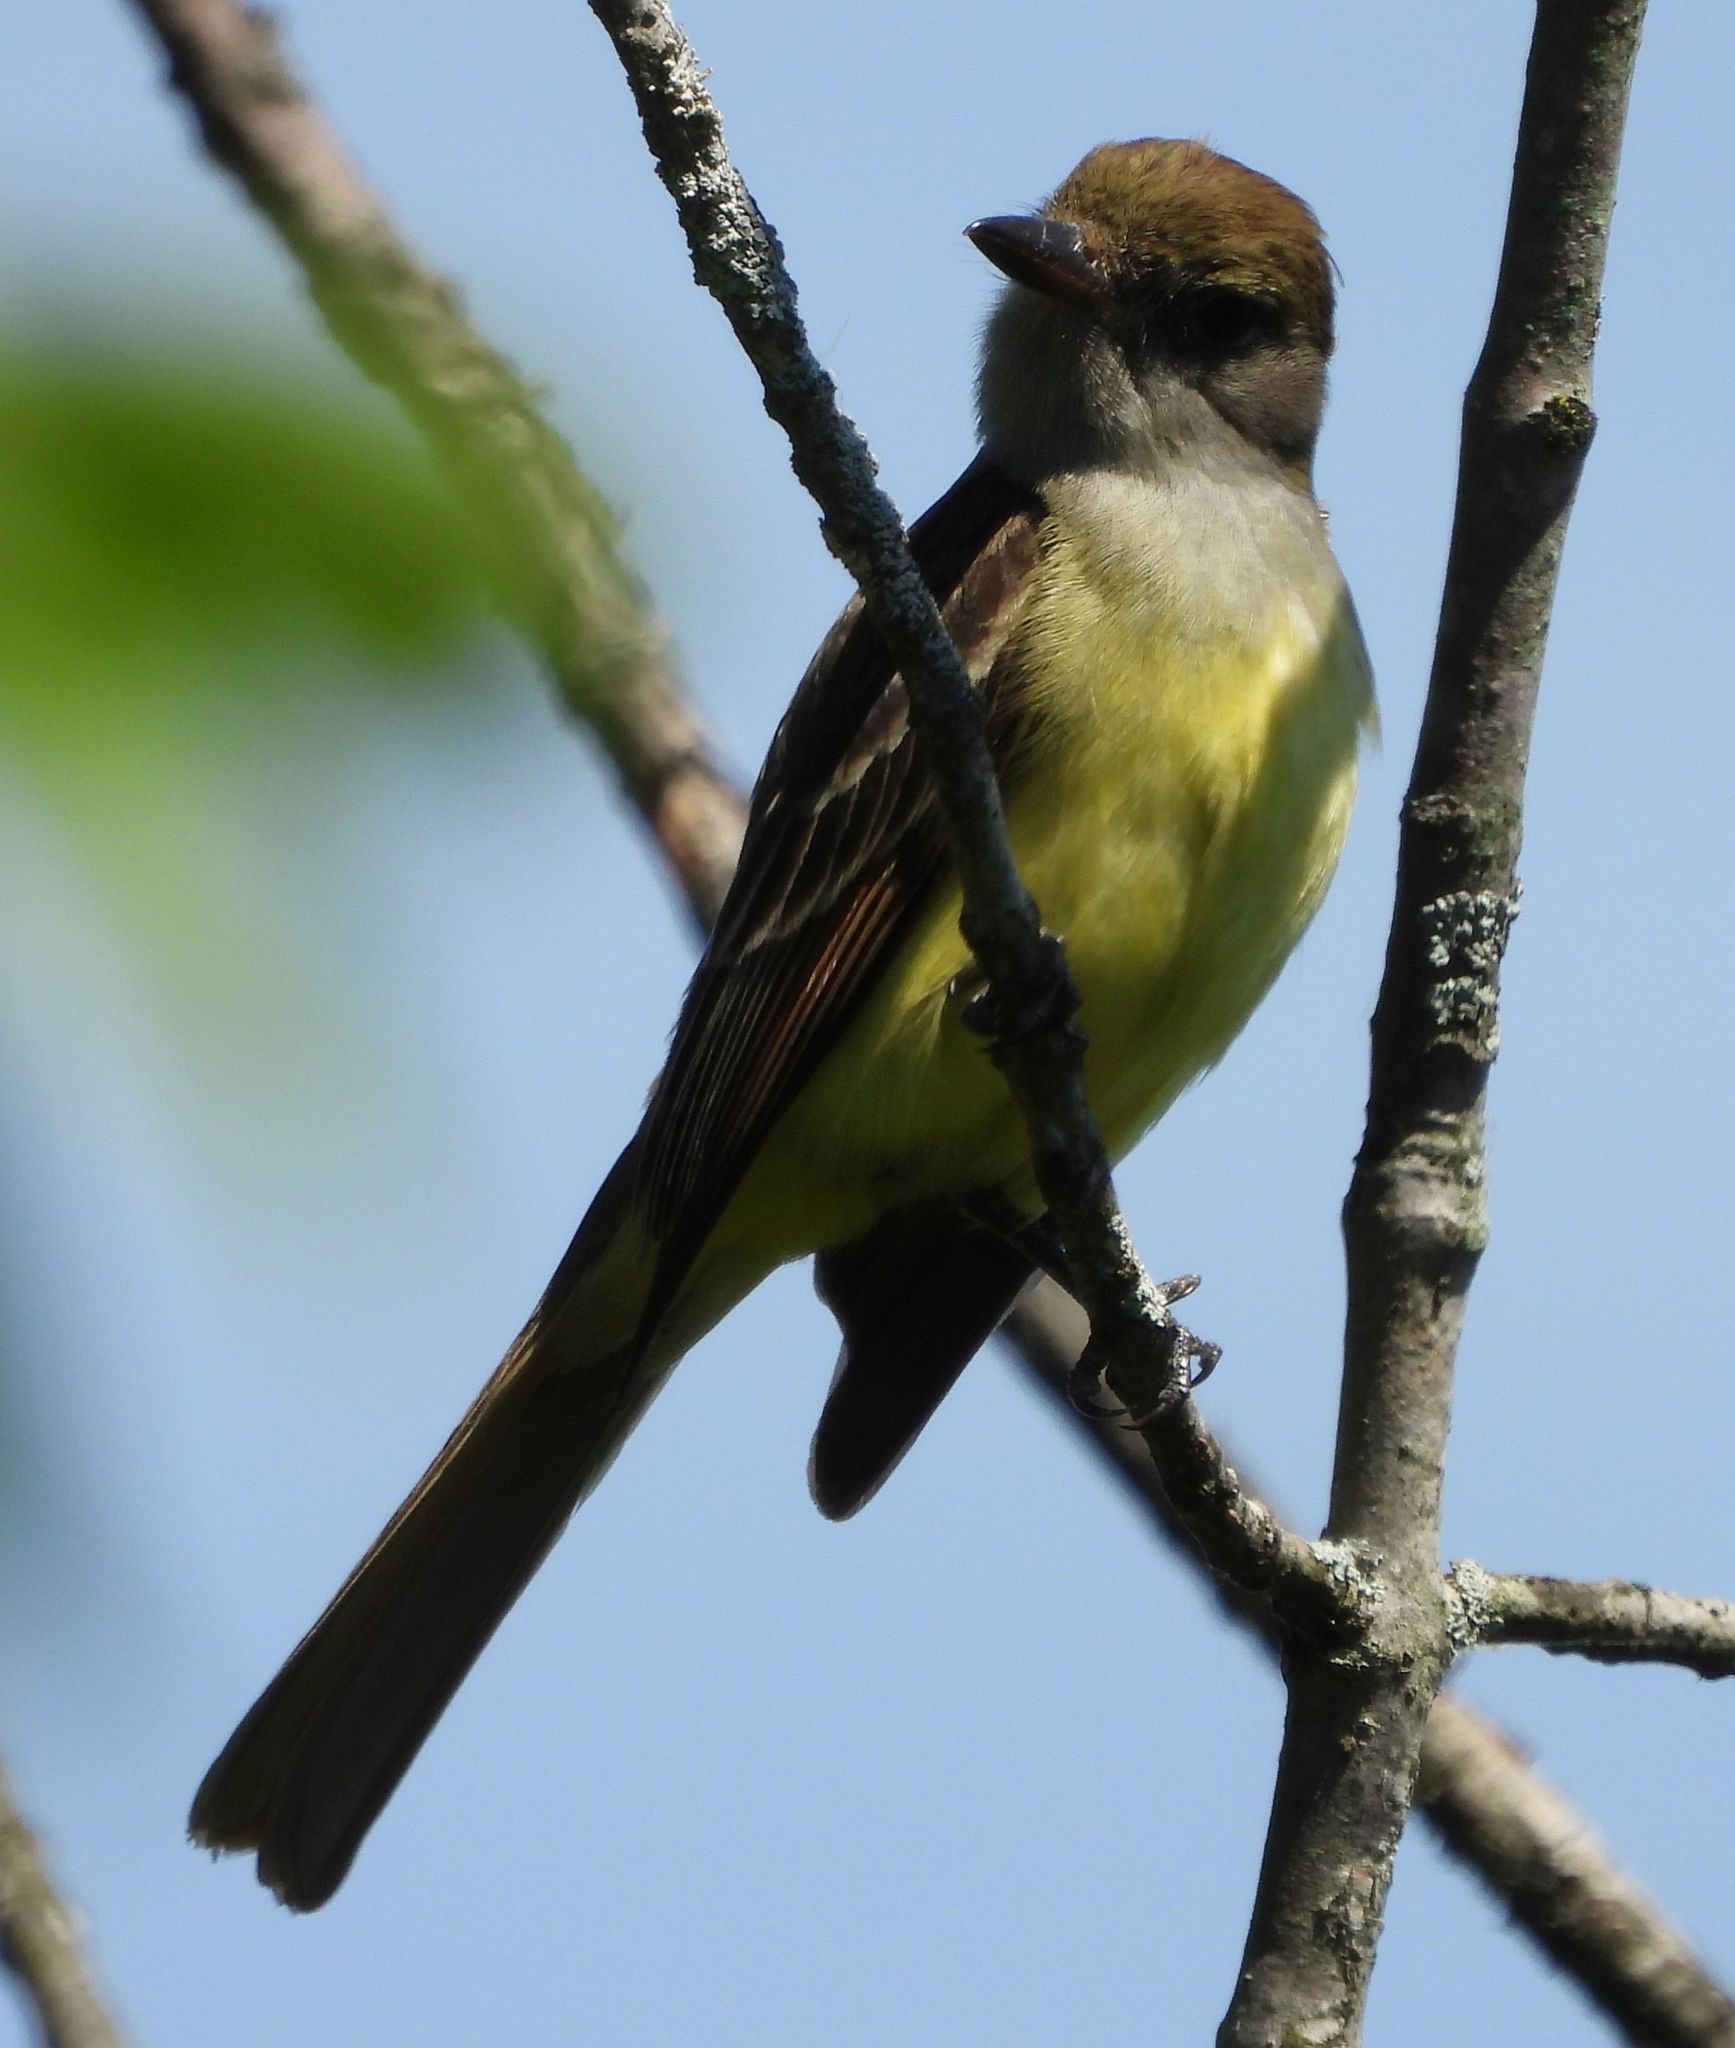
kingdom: Animalia
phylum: Chordata
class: Aves
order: Passeriformes
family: Tyrannidae
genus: Myiarchus
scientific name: Myiarchus crinitus
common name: Great crested flycatcher
